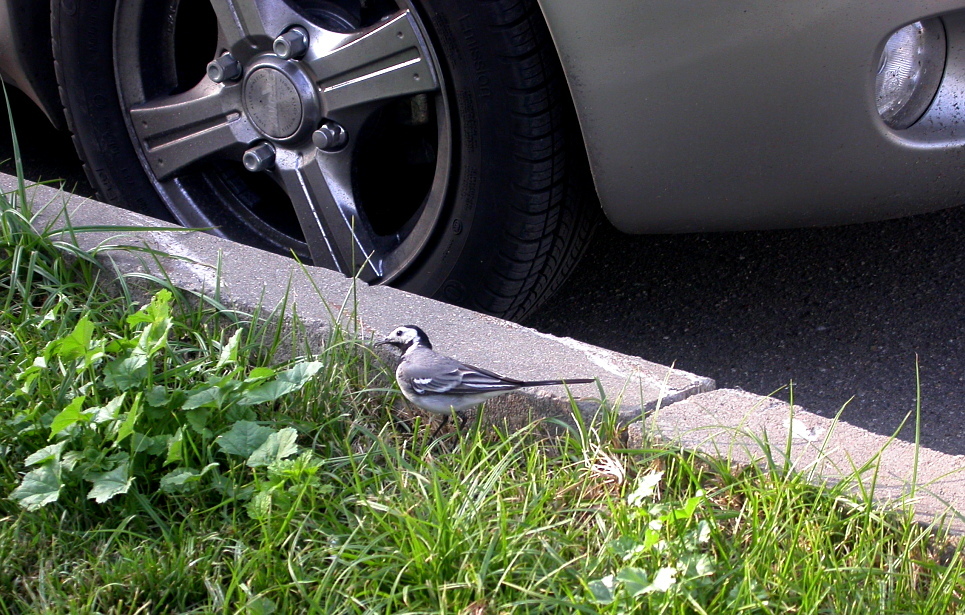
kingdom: Animalia
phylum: Chordata
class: Aves
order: Passeriformes
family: Motacillidae
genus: Motacilla
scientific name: Motacilla alba
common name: White wagtail
